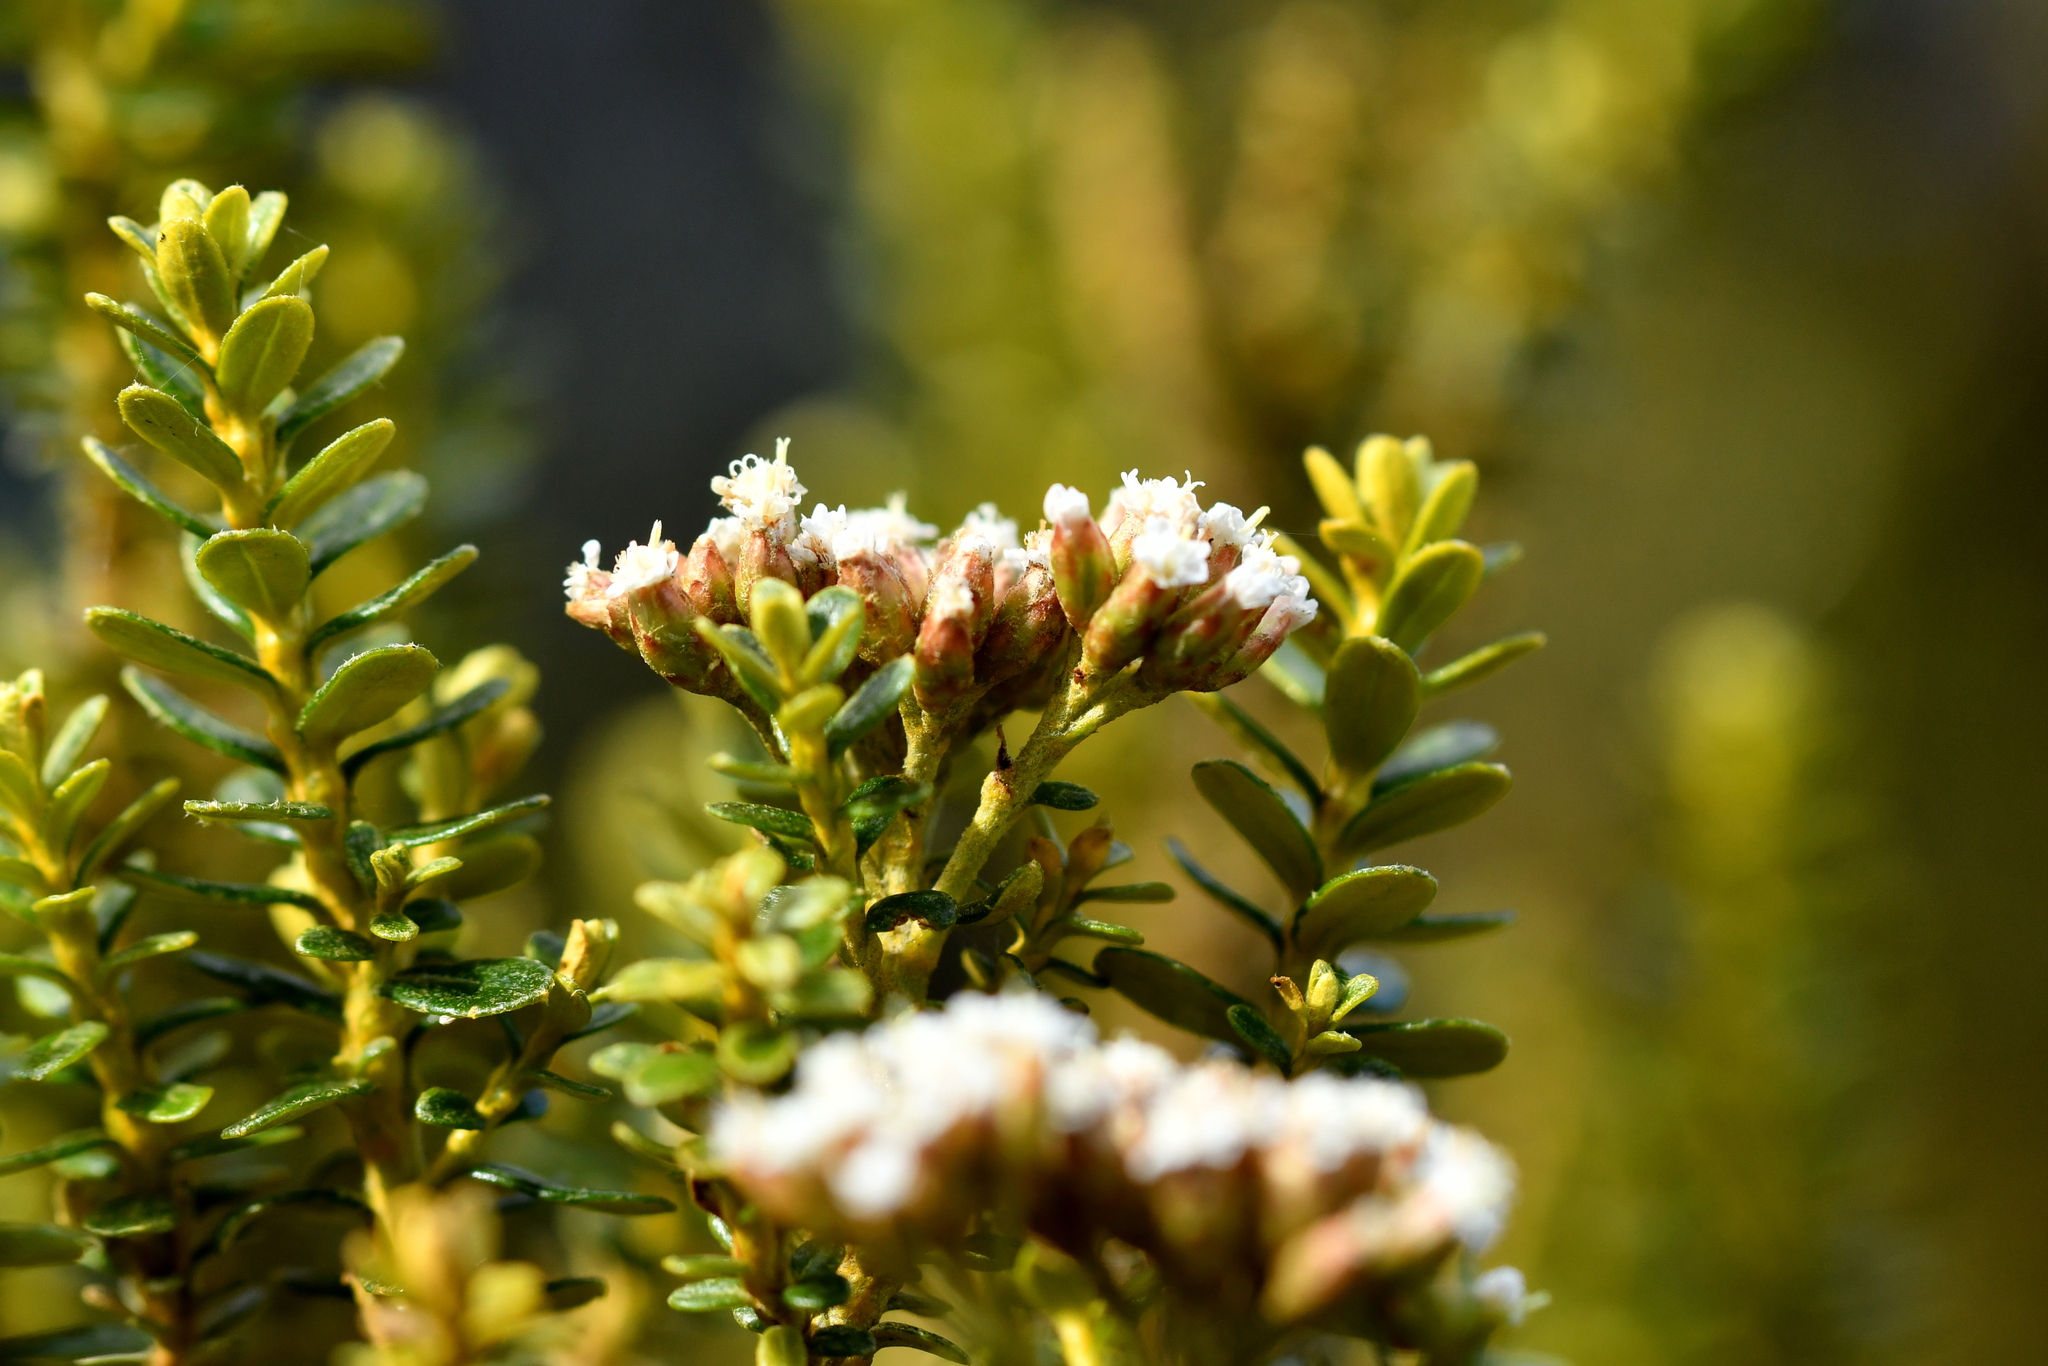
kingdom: Plantae
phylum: Tracheophyta
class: Magnoliopsida
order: Asterales
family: Asteraceae
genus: Ozothamnus
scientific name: Ozothamnus leptophyllus
